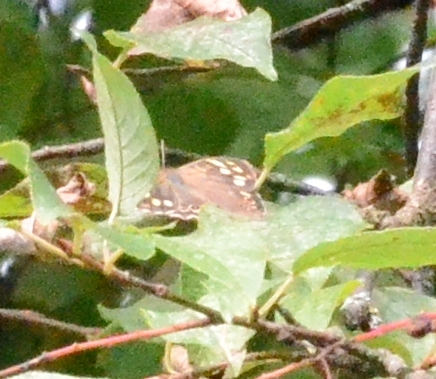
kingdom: Animalia
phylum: Arthropoda
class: Insecta
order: Lepidoptera
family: Nymphalidae
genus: Pararge
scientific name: Pararge aegeria
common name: Speckled wood
